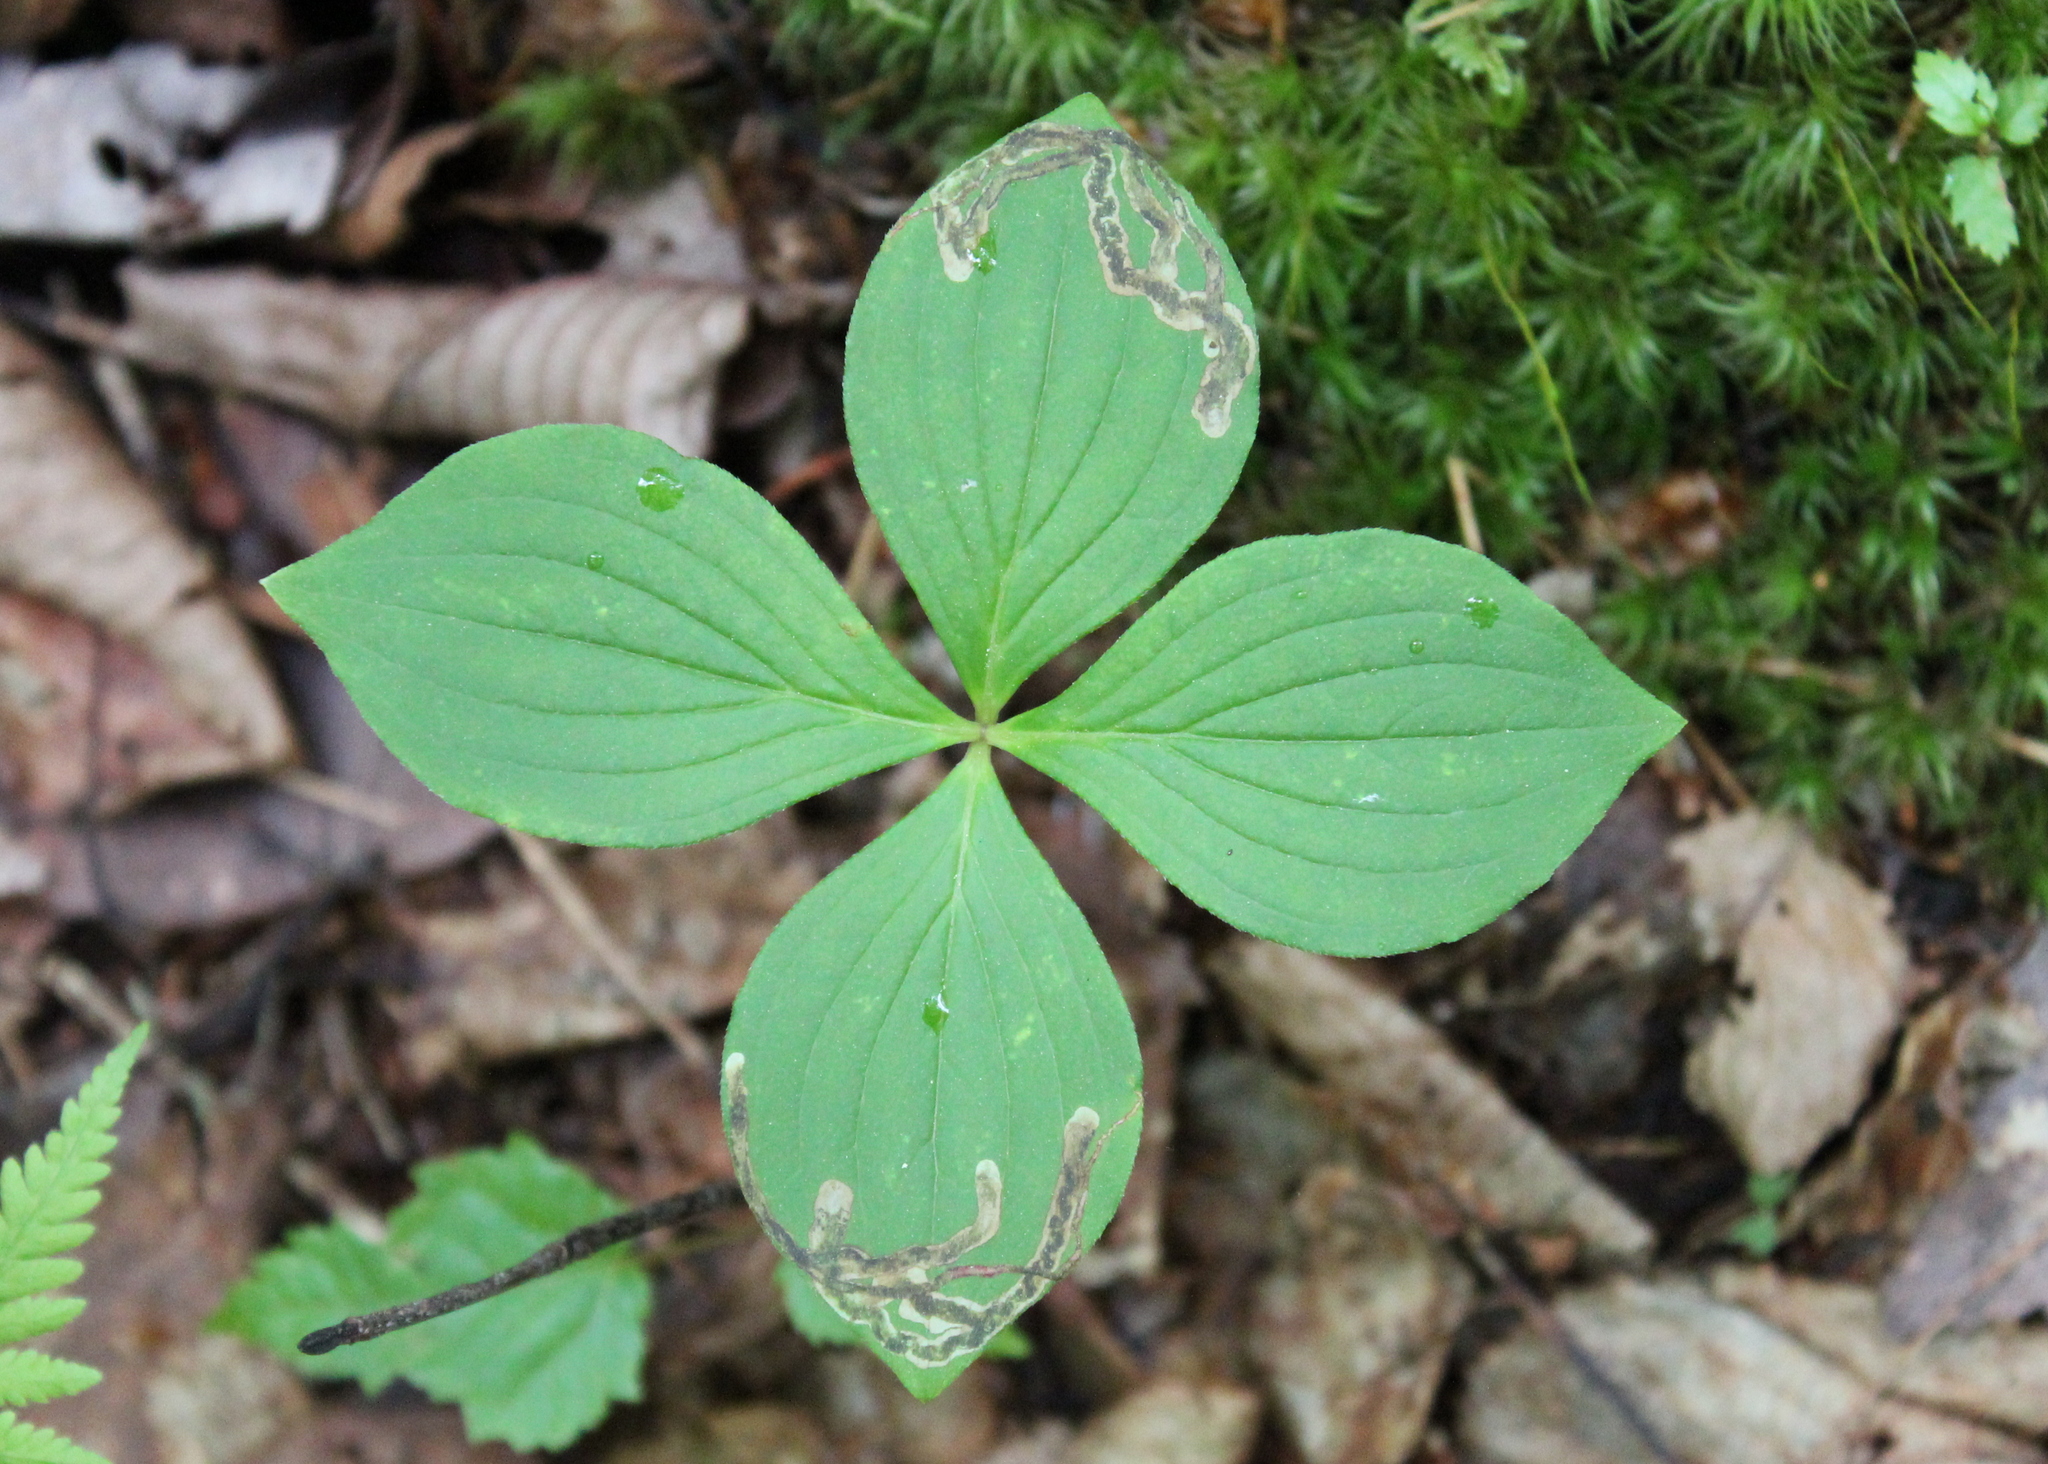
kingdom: Plantae
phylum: Tracheophyta
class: Magnoliopsida
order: Cornales
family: Cornaceae
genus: Cornus
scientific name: Cornus canadensis
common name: Creeping dogwood
